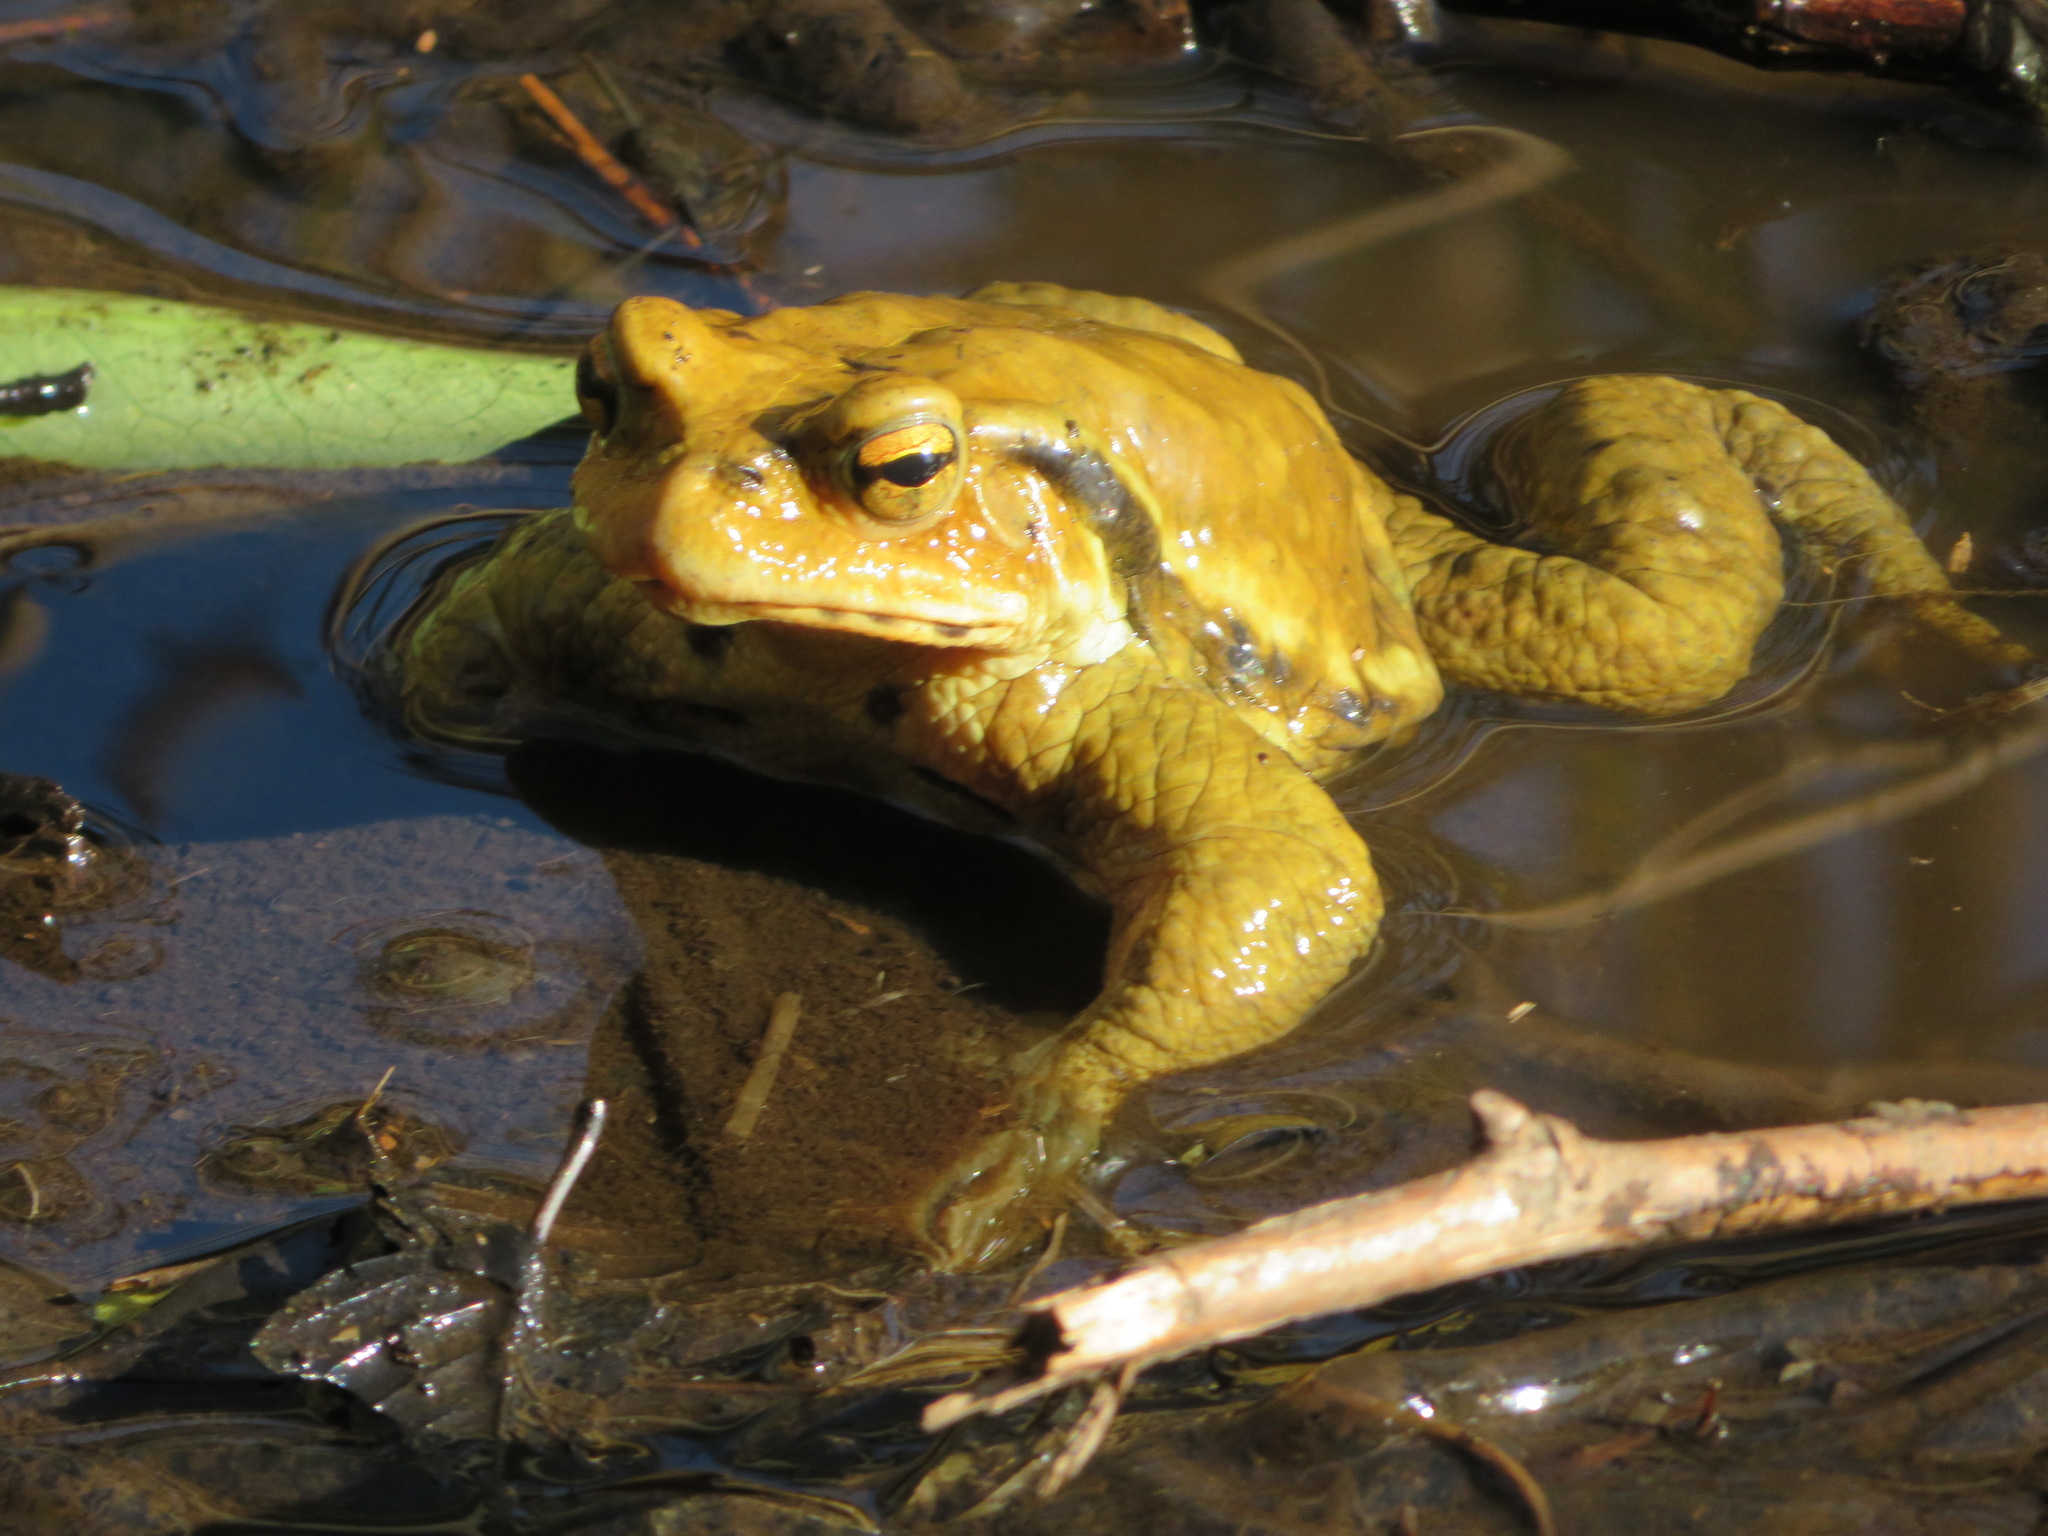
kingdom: Animalia
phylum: Chordata
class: Amphibia
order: Anura
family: Bufonidae
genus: Bufo
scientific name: Bufo japonicus
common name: Japanese common toad
